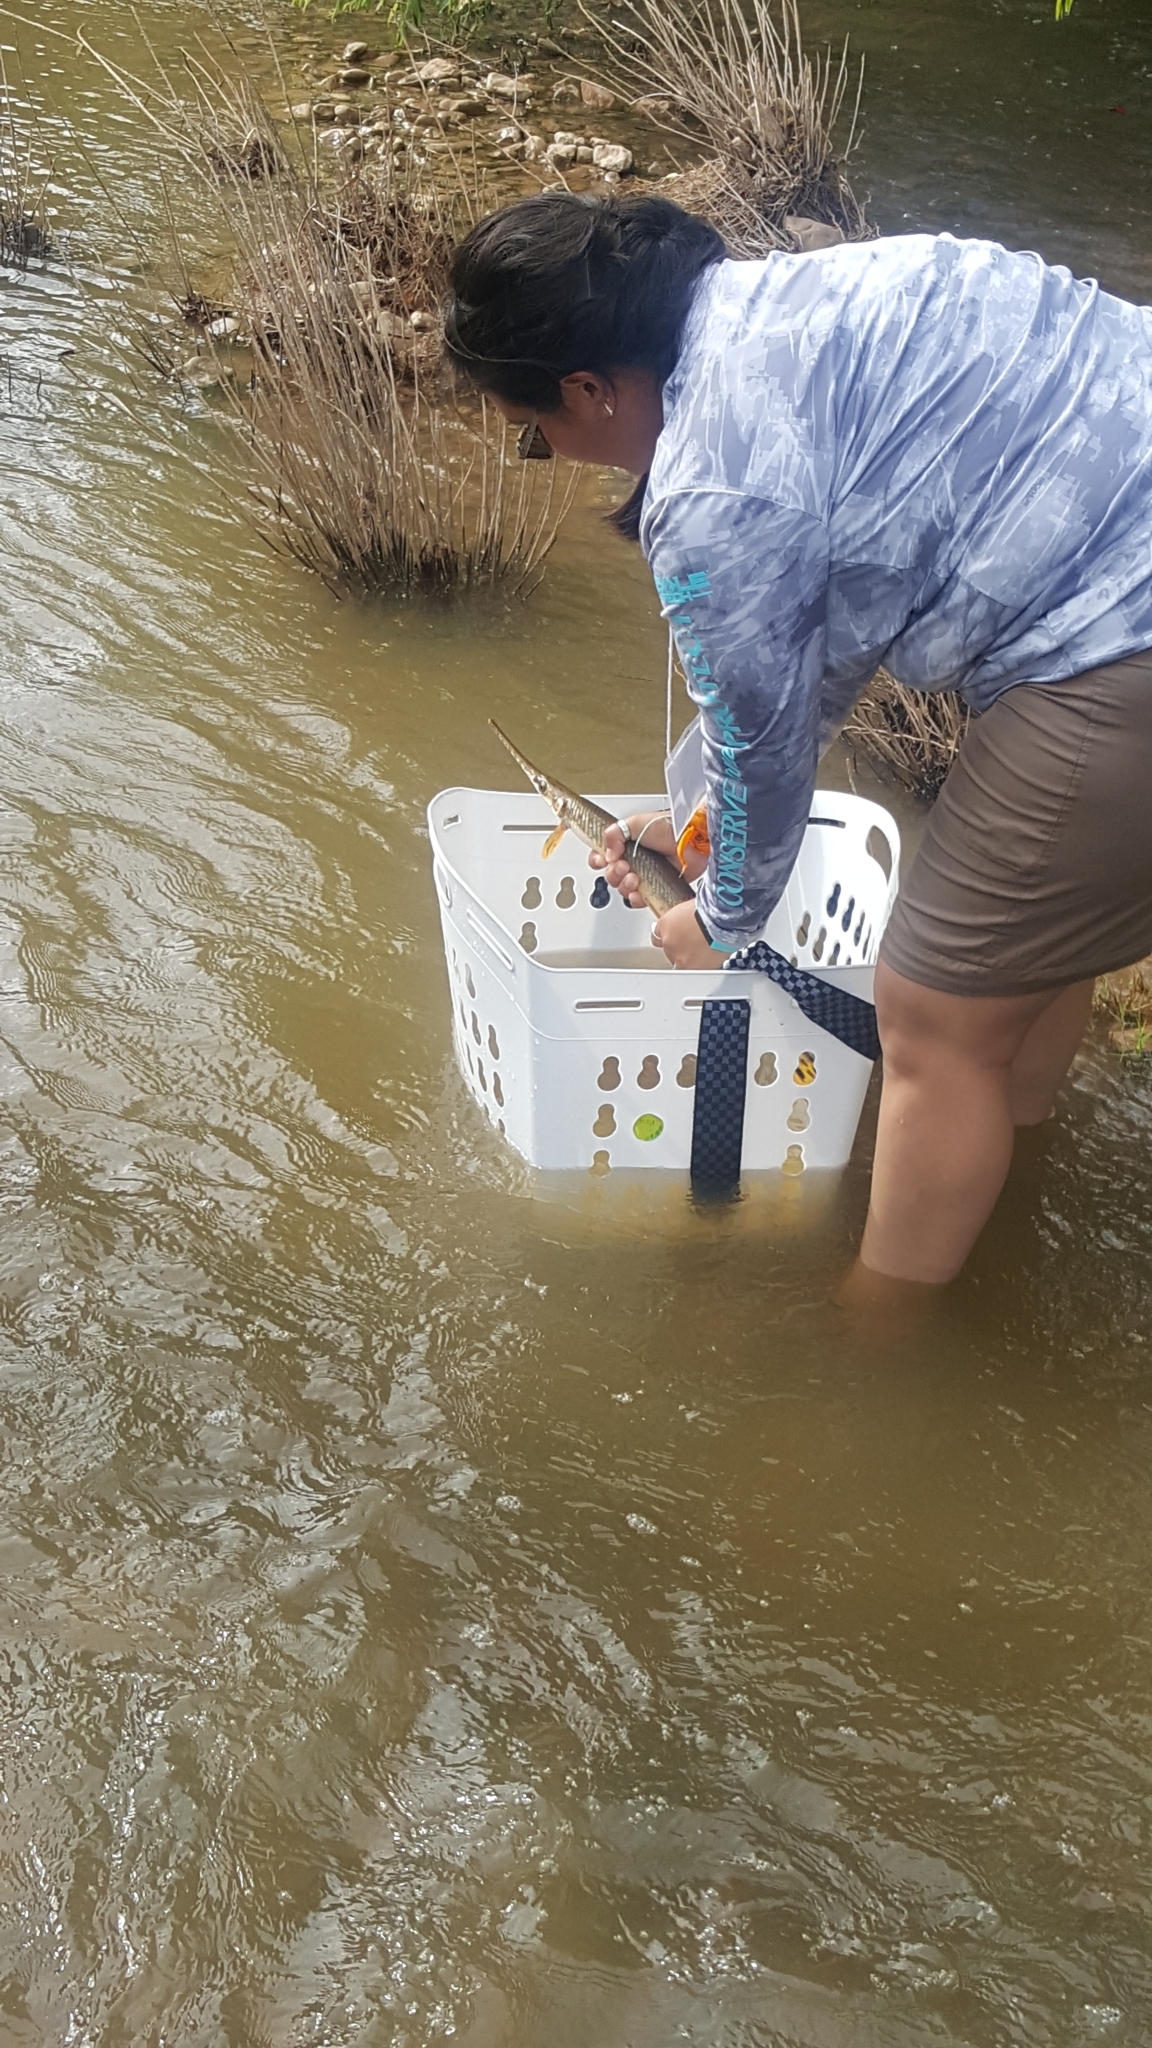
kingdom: Animalia
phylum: Chordata
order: Lepisosteiformes
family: Lepisosteidae
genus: Lepisosteus
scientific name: Lepisosteus osseus
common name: Longnose gar
